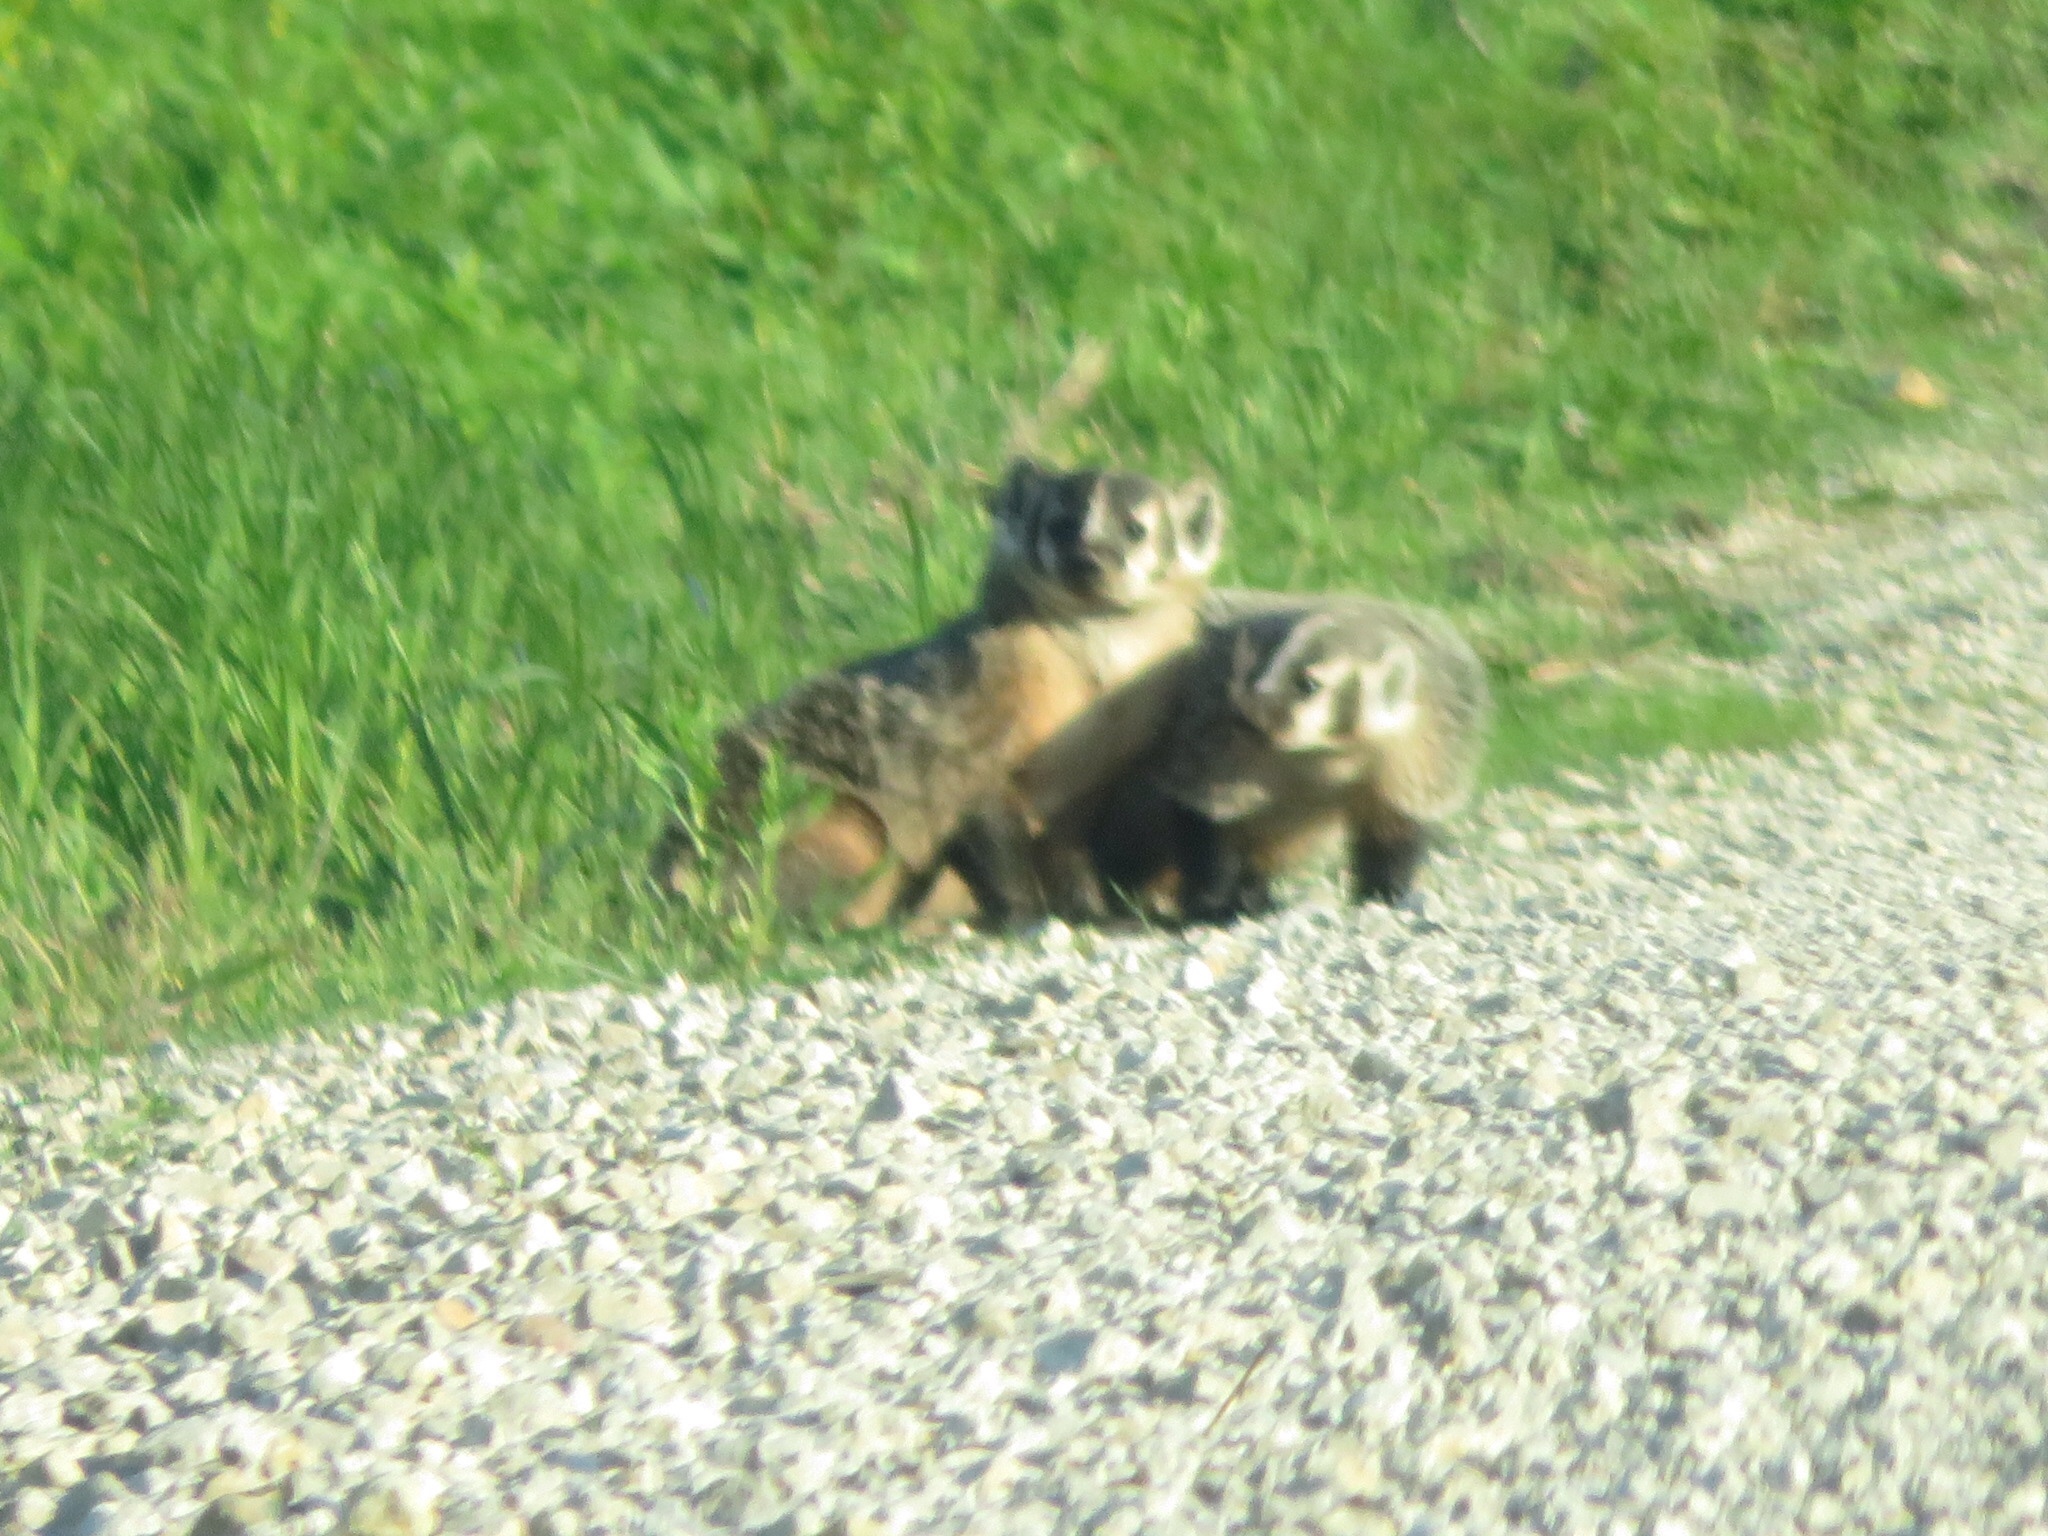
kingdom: Animalia
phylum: Chordata
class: Mammalia
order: Carnivora
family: Mustelidae
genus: Taxidea
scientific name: Taxidea taxus
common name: American badger
